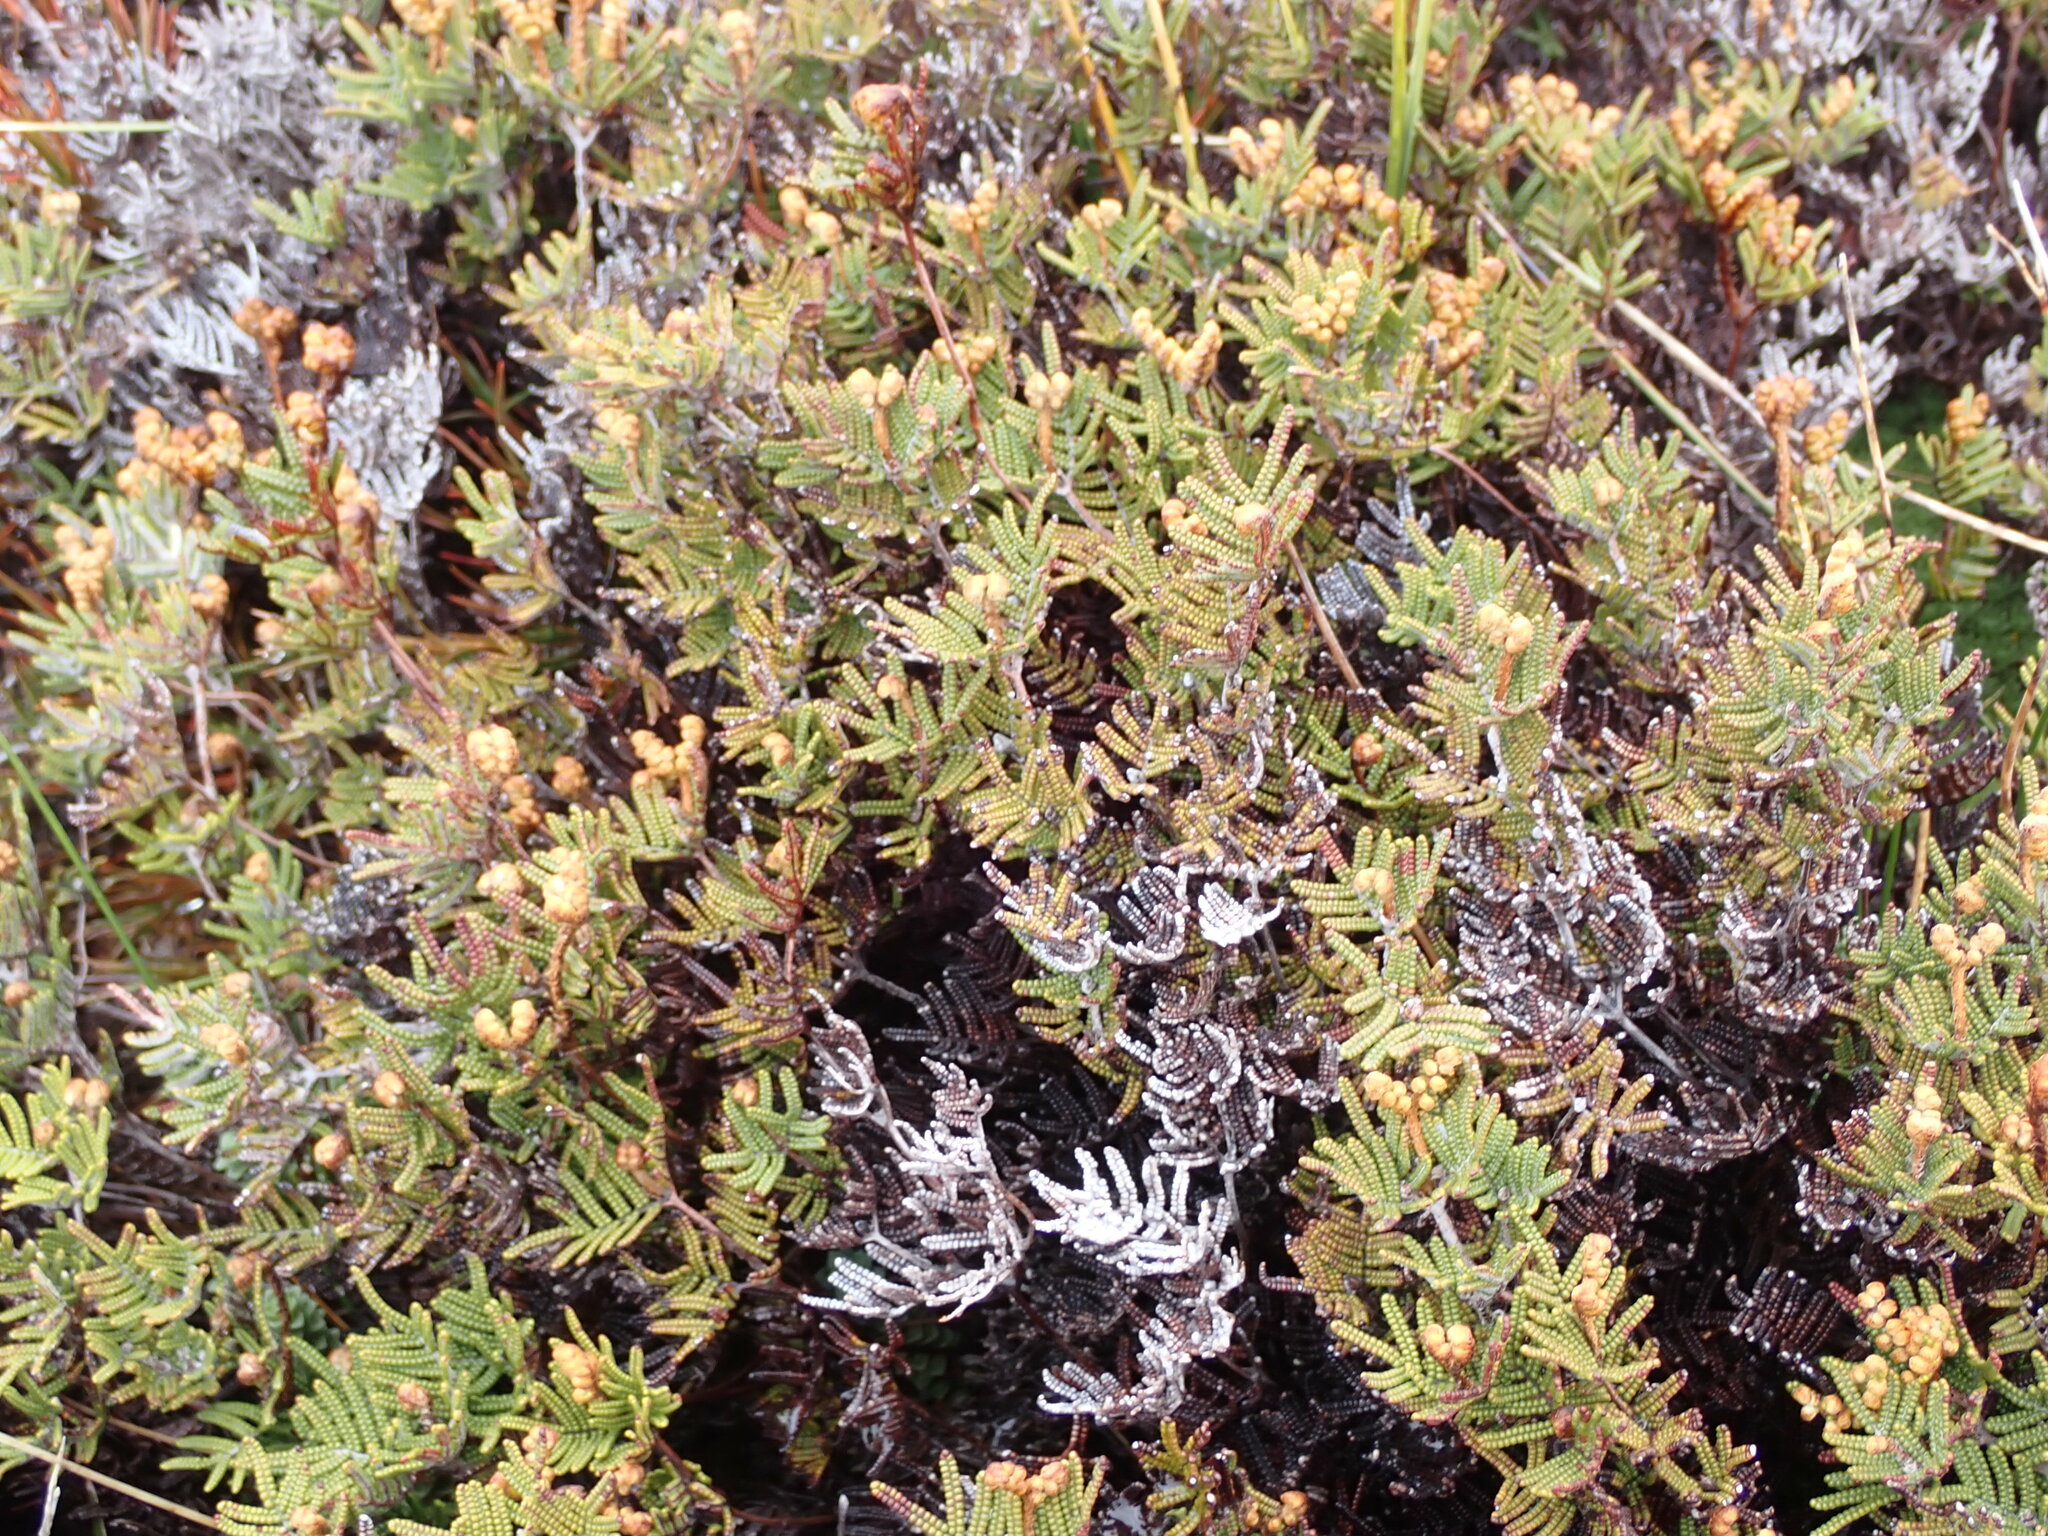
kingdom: Plantae
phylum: Tracheophyta
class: Polypodiopsida
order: Gleicheniales
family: Gleicheniaceae
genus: Gleichenia
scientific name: Gleichenia alpina
